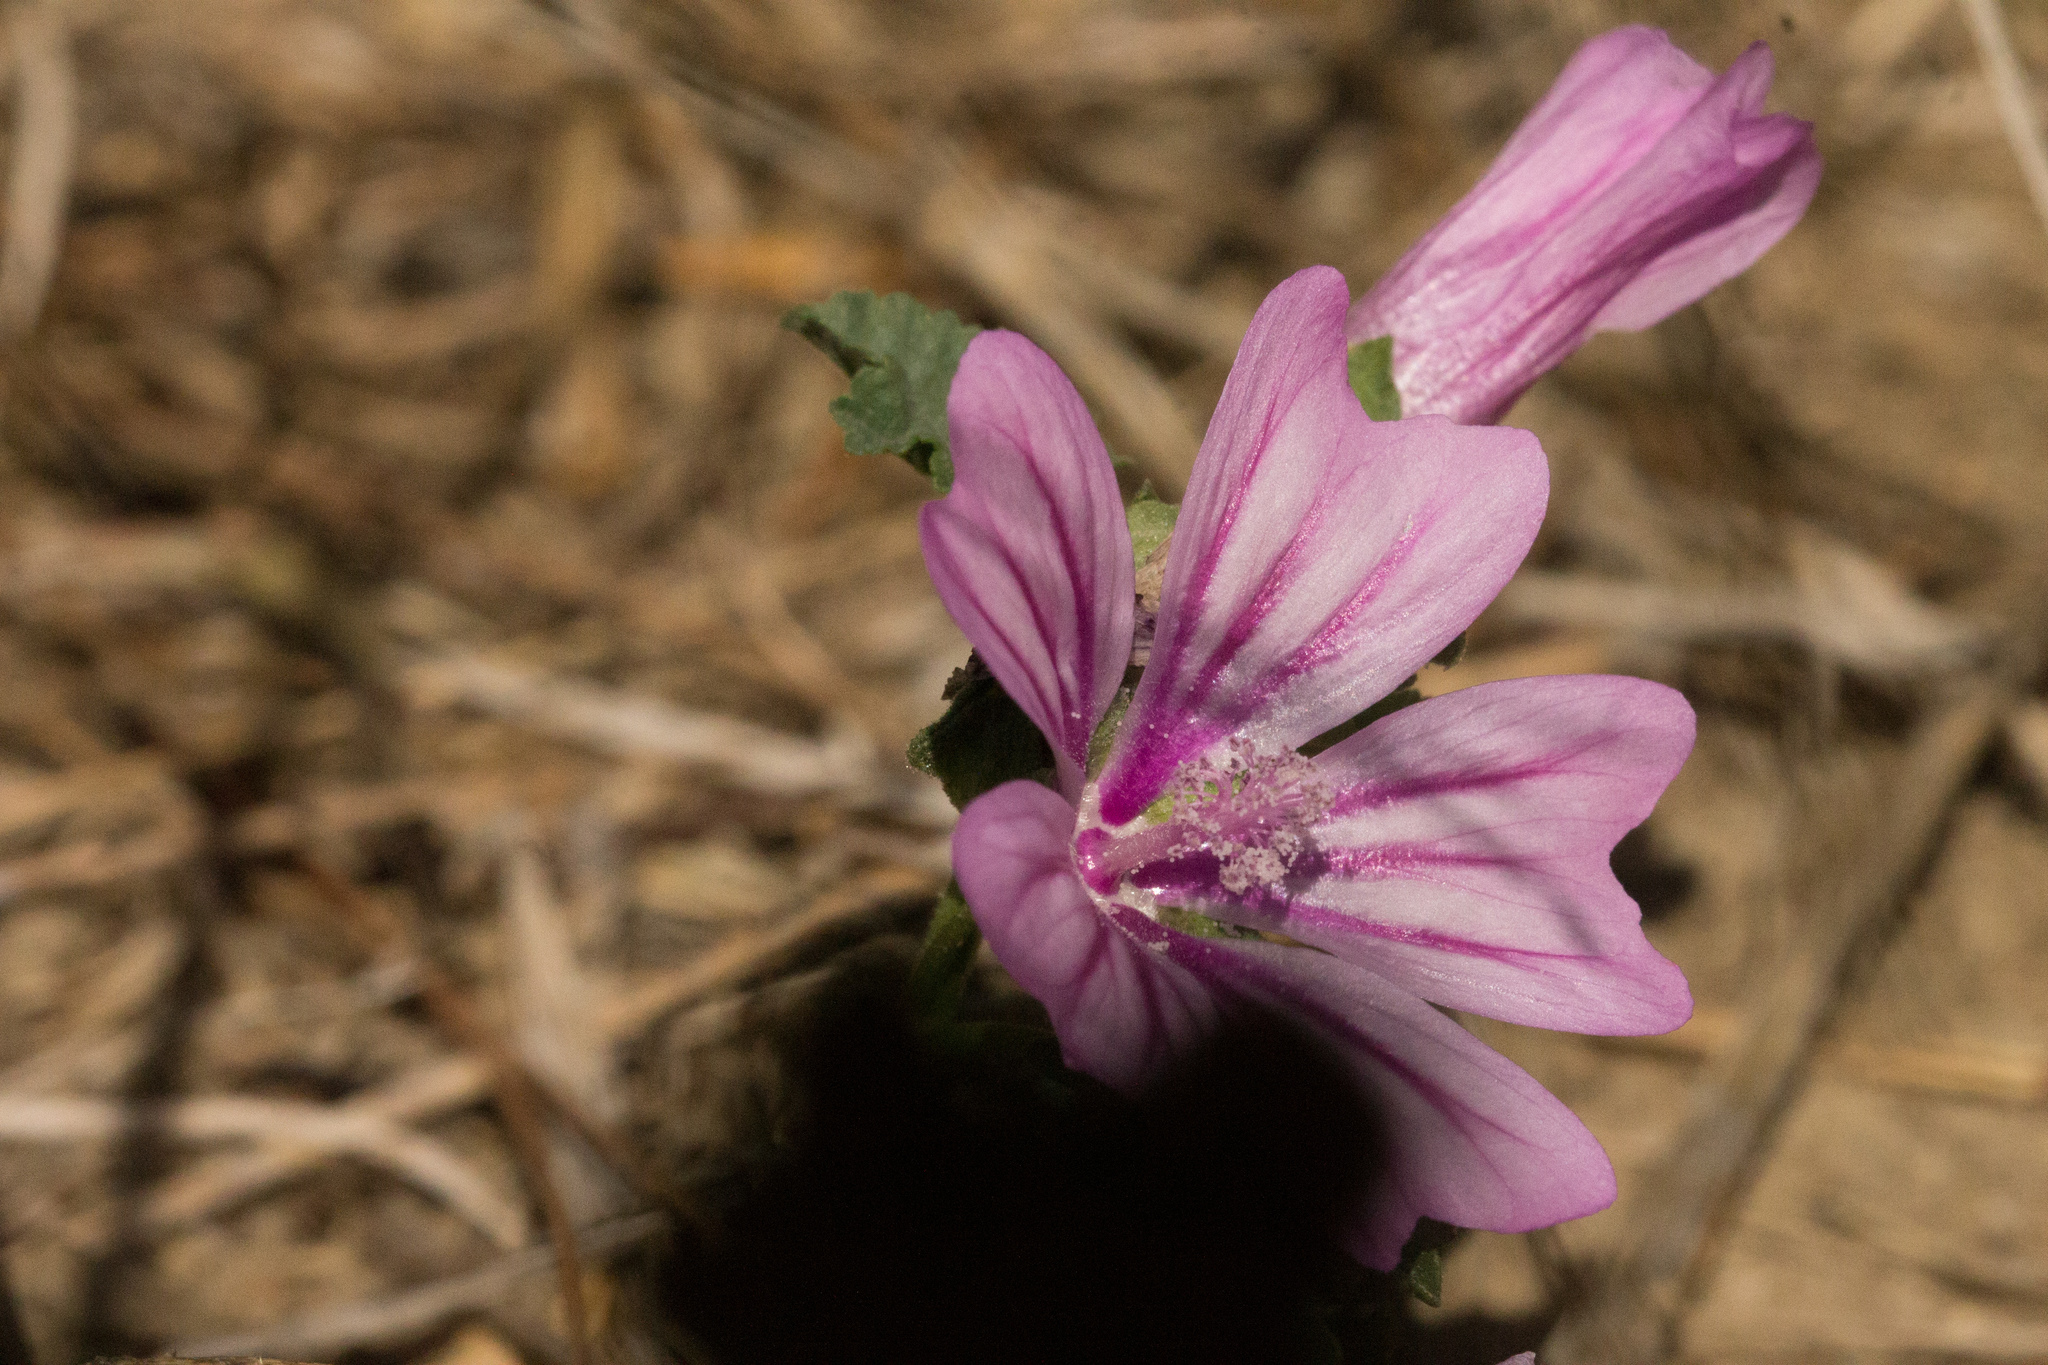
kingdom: Plantae
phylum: Tracheophyta
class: Magnoliopsida
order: Malvales
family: Malvaceae
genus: Malva
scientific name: Malva sylvestris
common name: Common mallow
